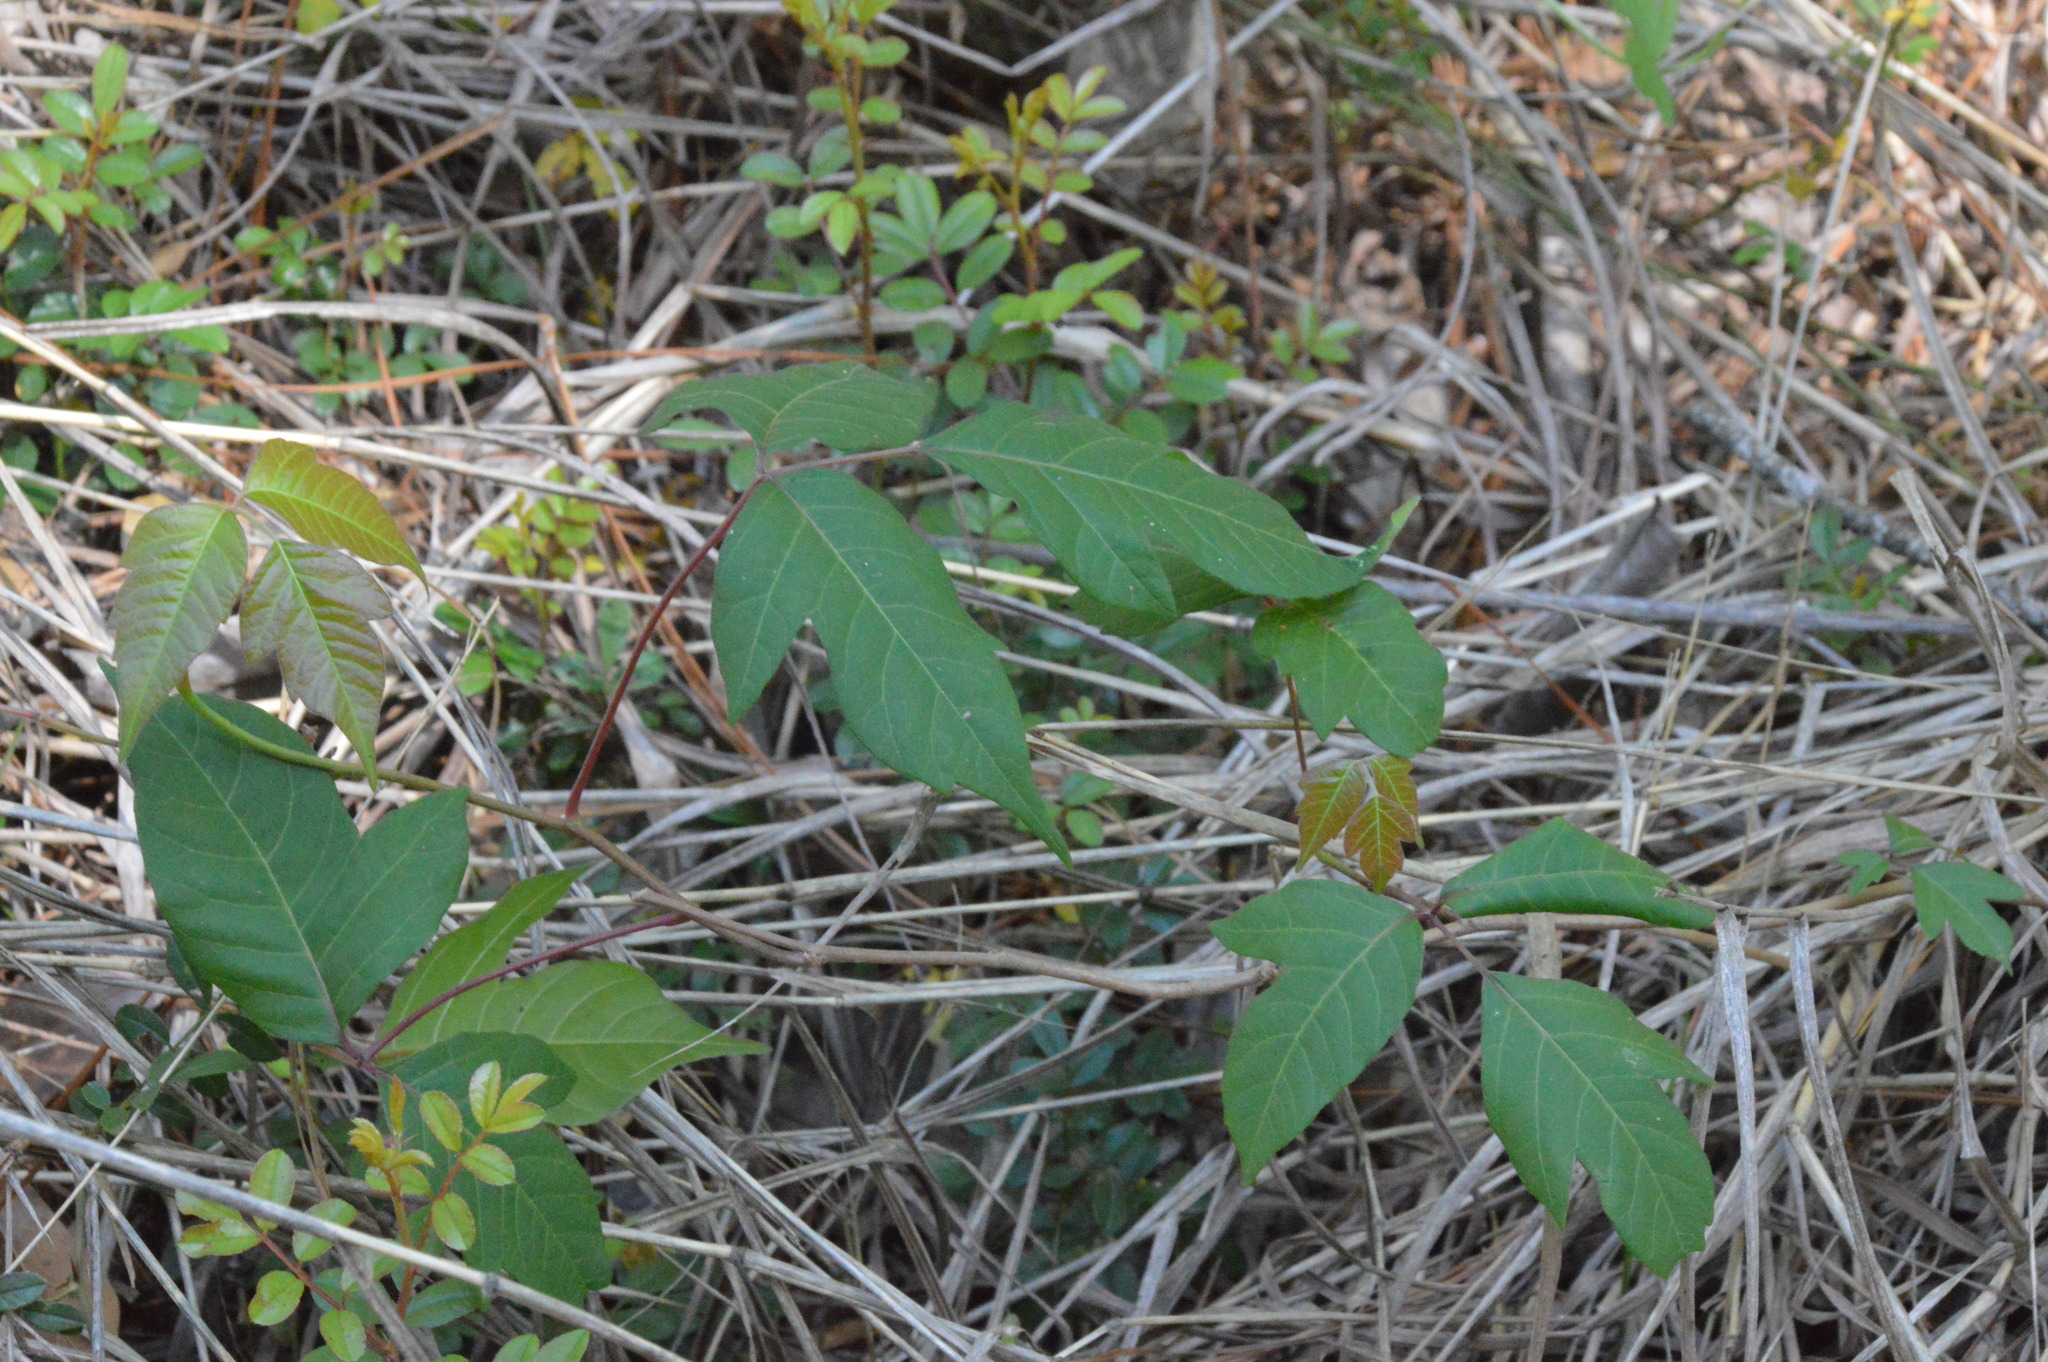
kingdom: Plantae
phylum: Tracheophyta
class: Magnoliopsida
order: Sapindales
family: Anacardiaceae
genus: Toxicodendron
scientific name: Toxicodendron radicans
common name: Poison ivy
